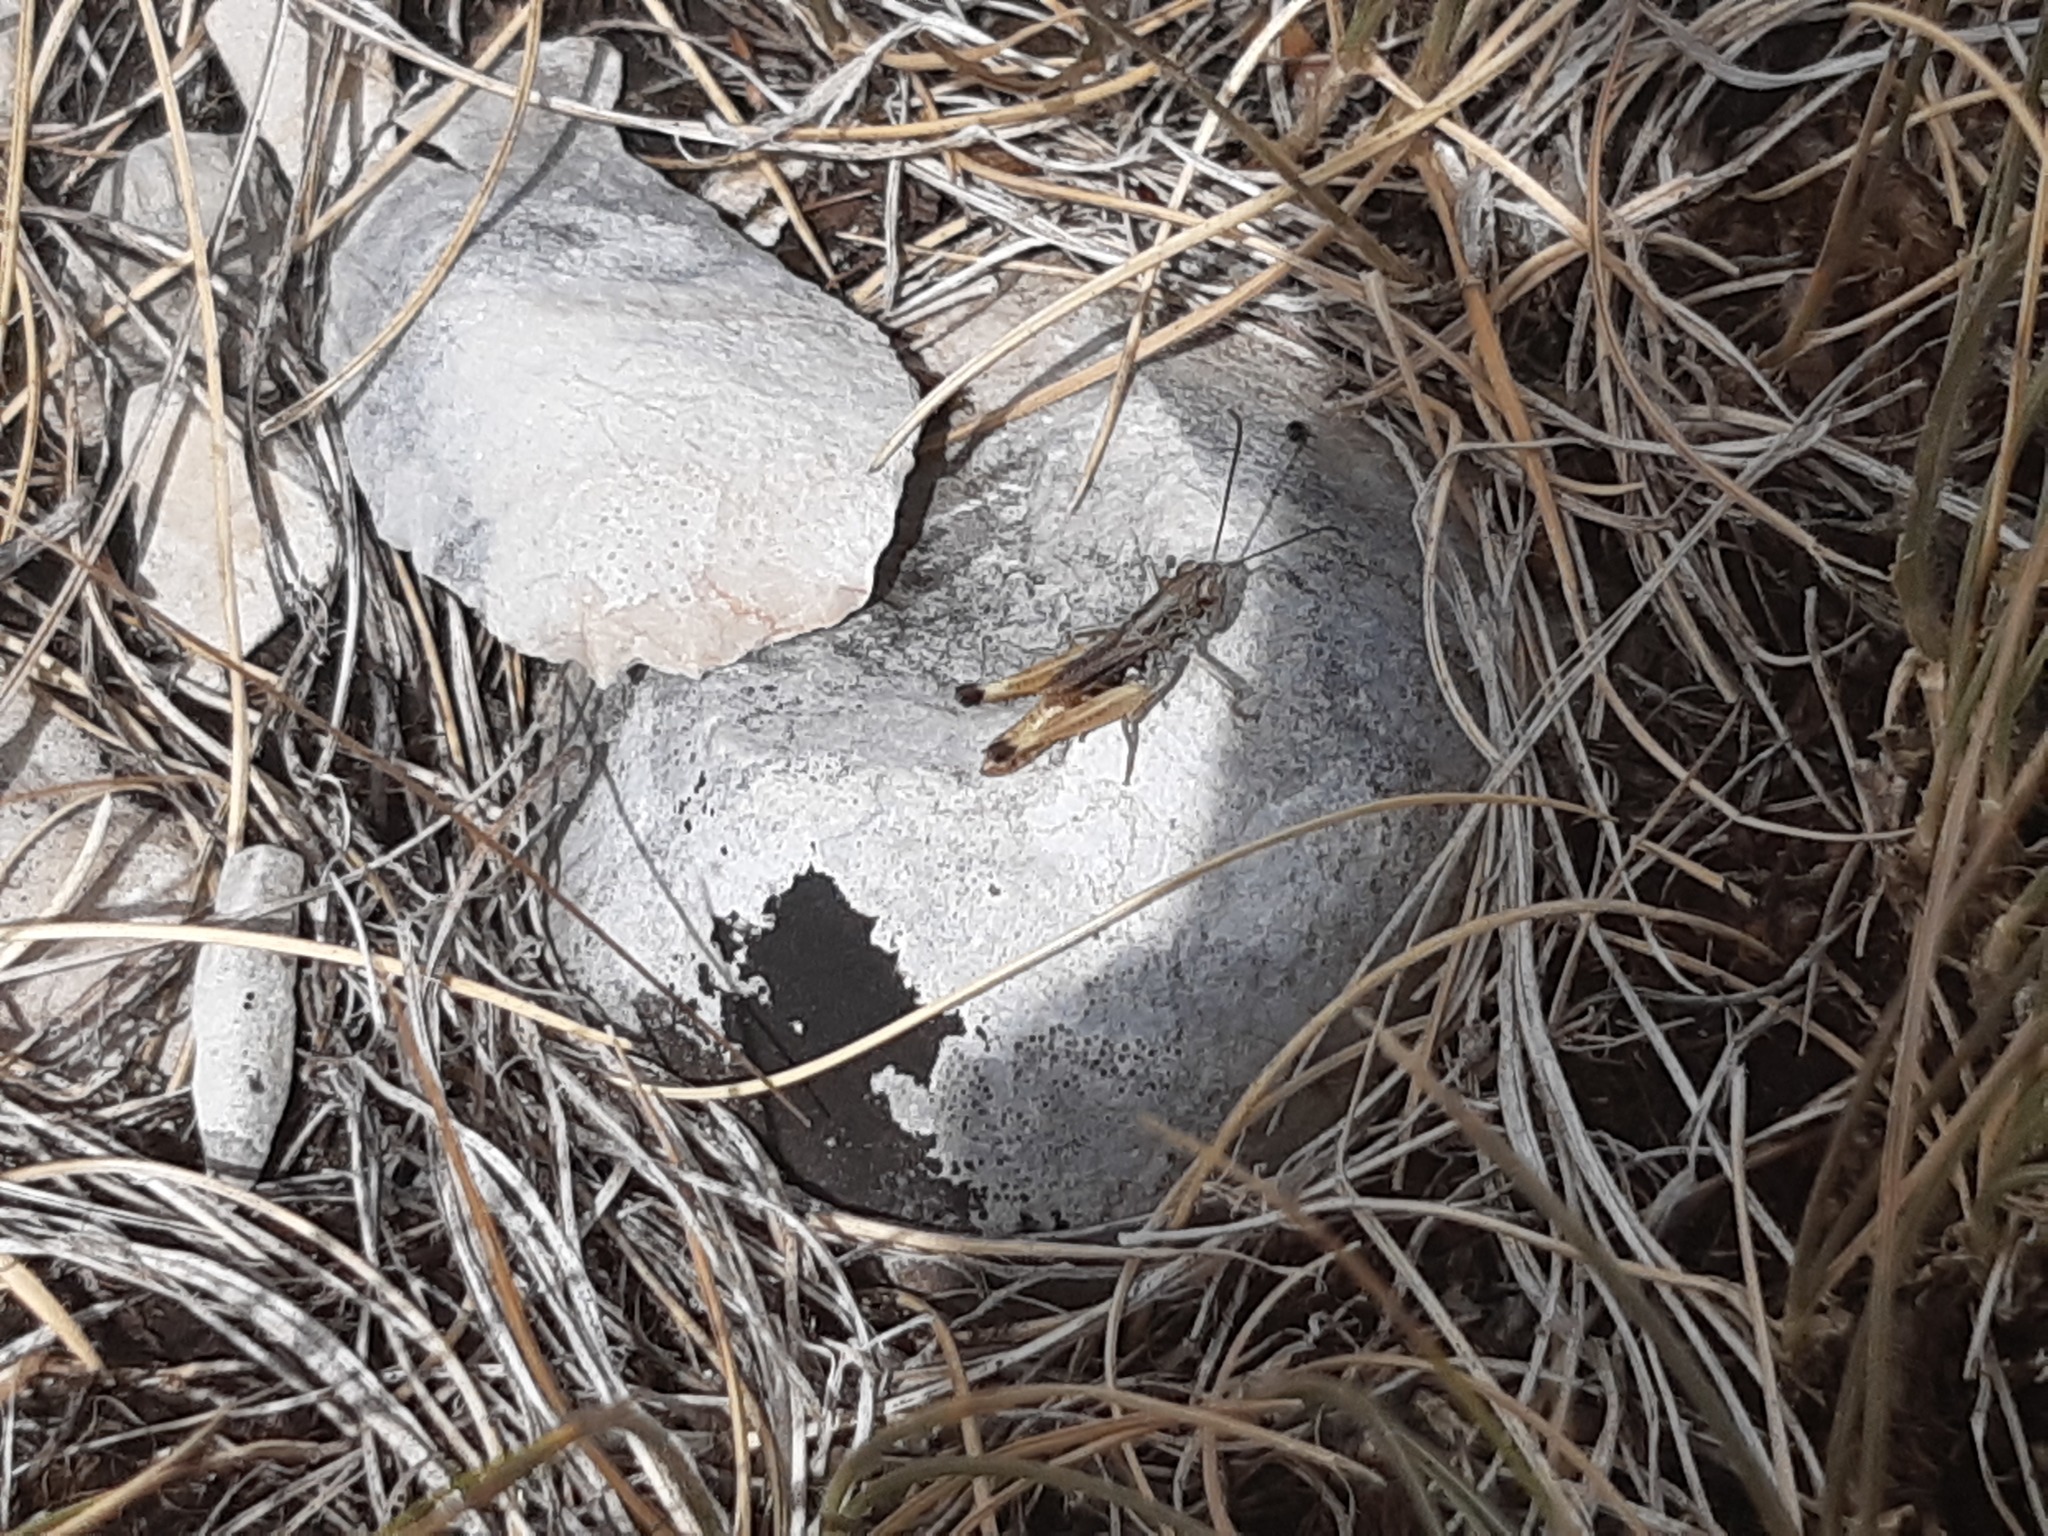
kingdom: Animalia
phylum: Arthropoda
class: Insecta
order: Orthoptera
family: Acrididae
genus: Rammeihippus
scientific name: Rammeihippus dinaricus
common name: Dinarian grasshopper
